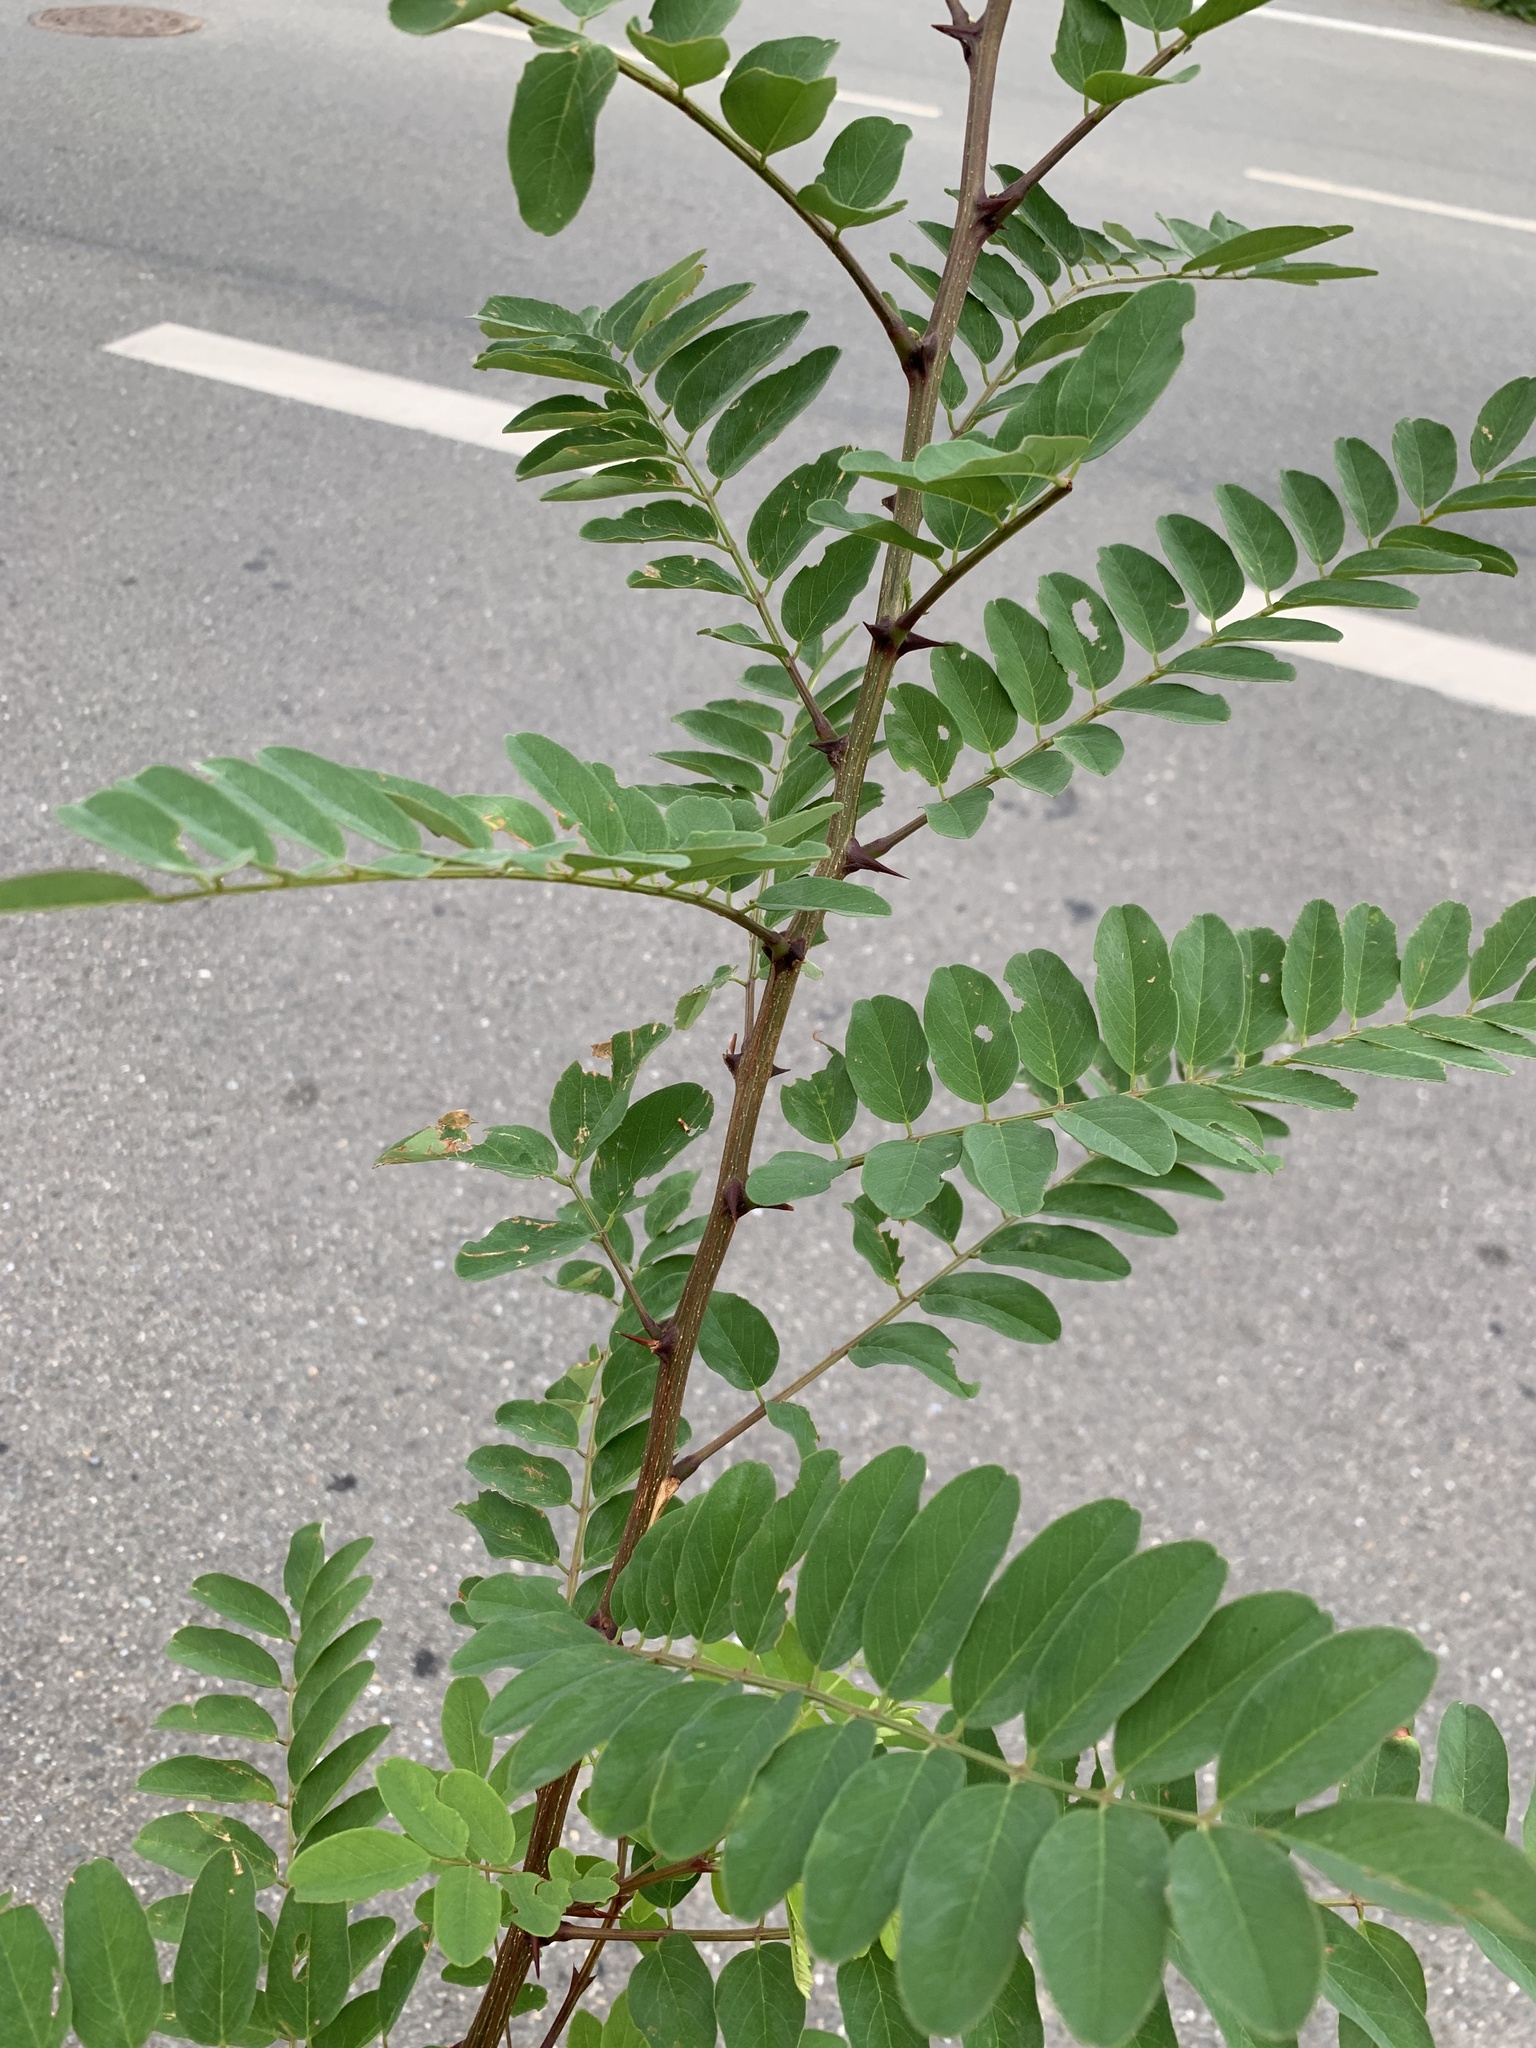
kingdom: Plantae
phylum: Tracheophyta
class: Magnoliopsida
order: Fabales
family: Fabaceae
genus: Robinia
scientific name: Robinia pseudoacacia
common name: Black locust
